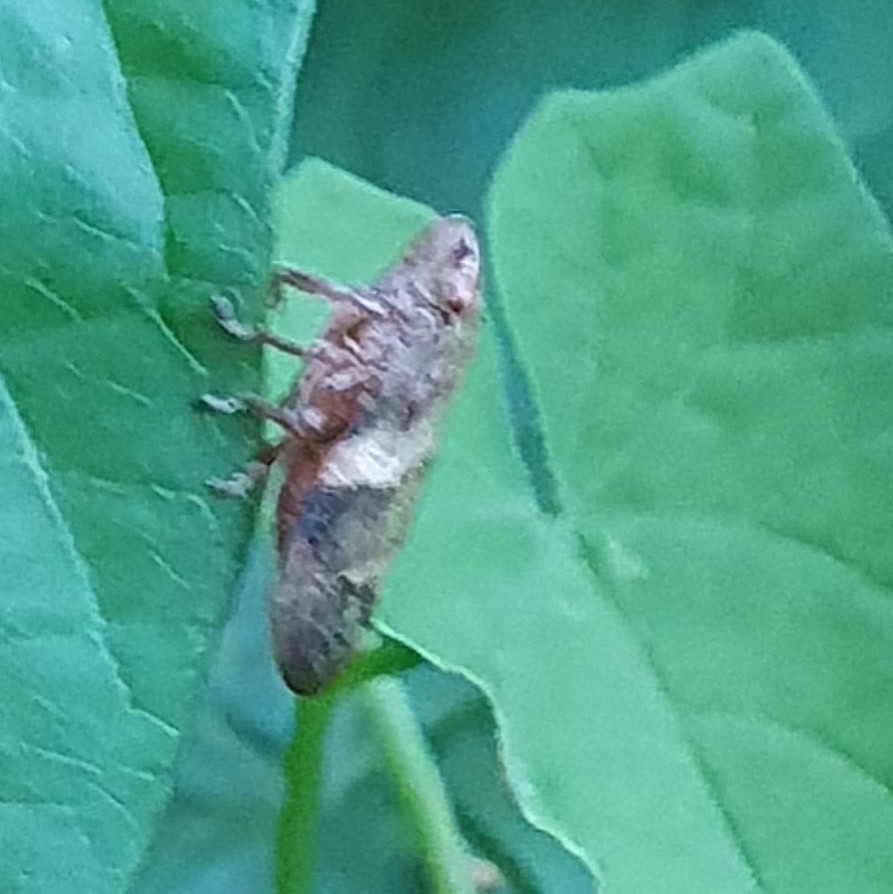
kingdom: Animalia
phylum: Arthropoda
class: Insecta
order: Hemiptera
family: Aphrophoridae
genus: Aphrophora
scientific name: Aphrophora alni
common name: European alder spittlebug
